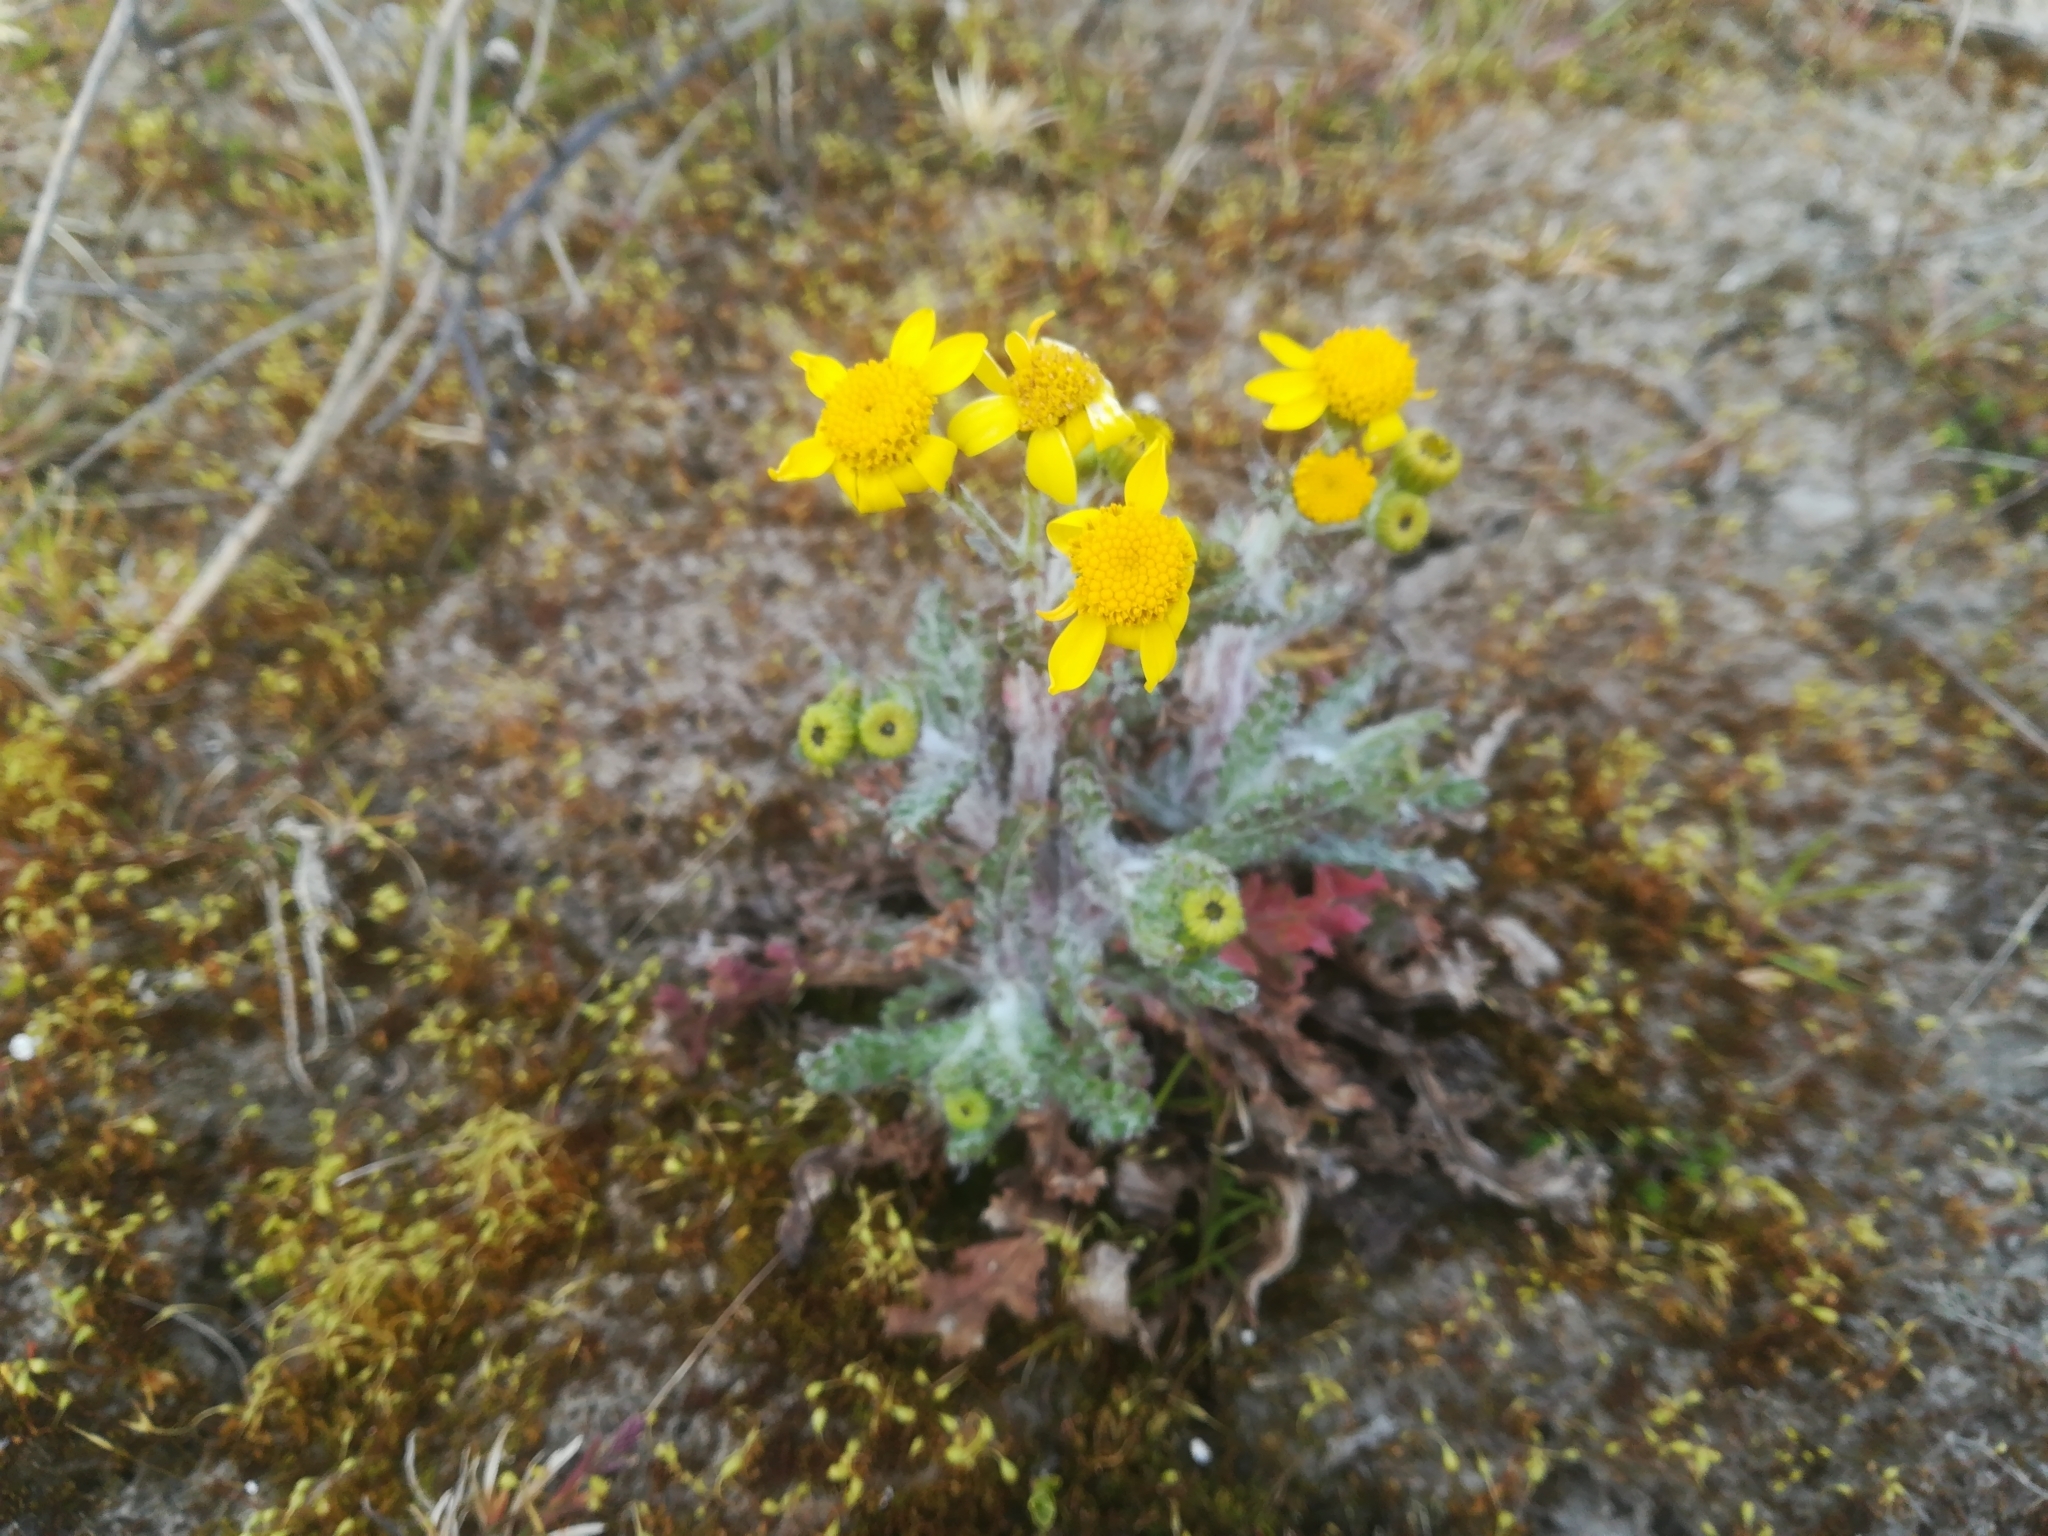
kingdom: Plantae
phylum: Tracheophyta
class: Magnoliopsida
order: Asterales
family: Asteraceae
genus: Senecio
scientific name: Senecio vernalis
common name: Eastern groundsel
